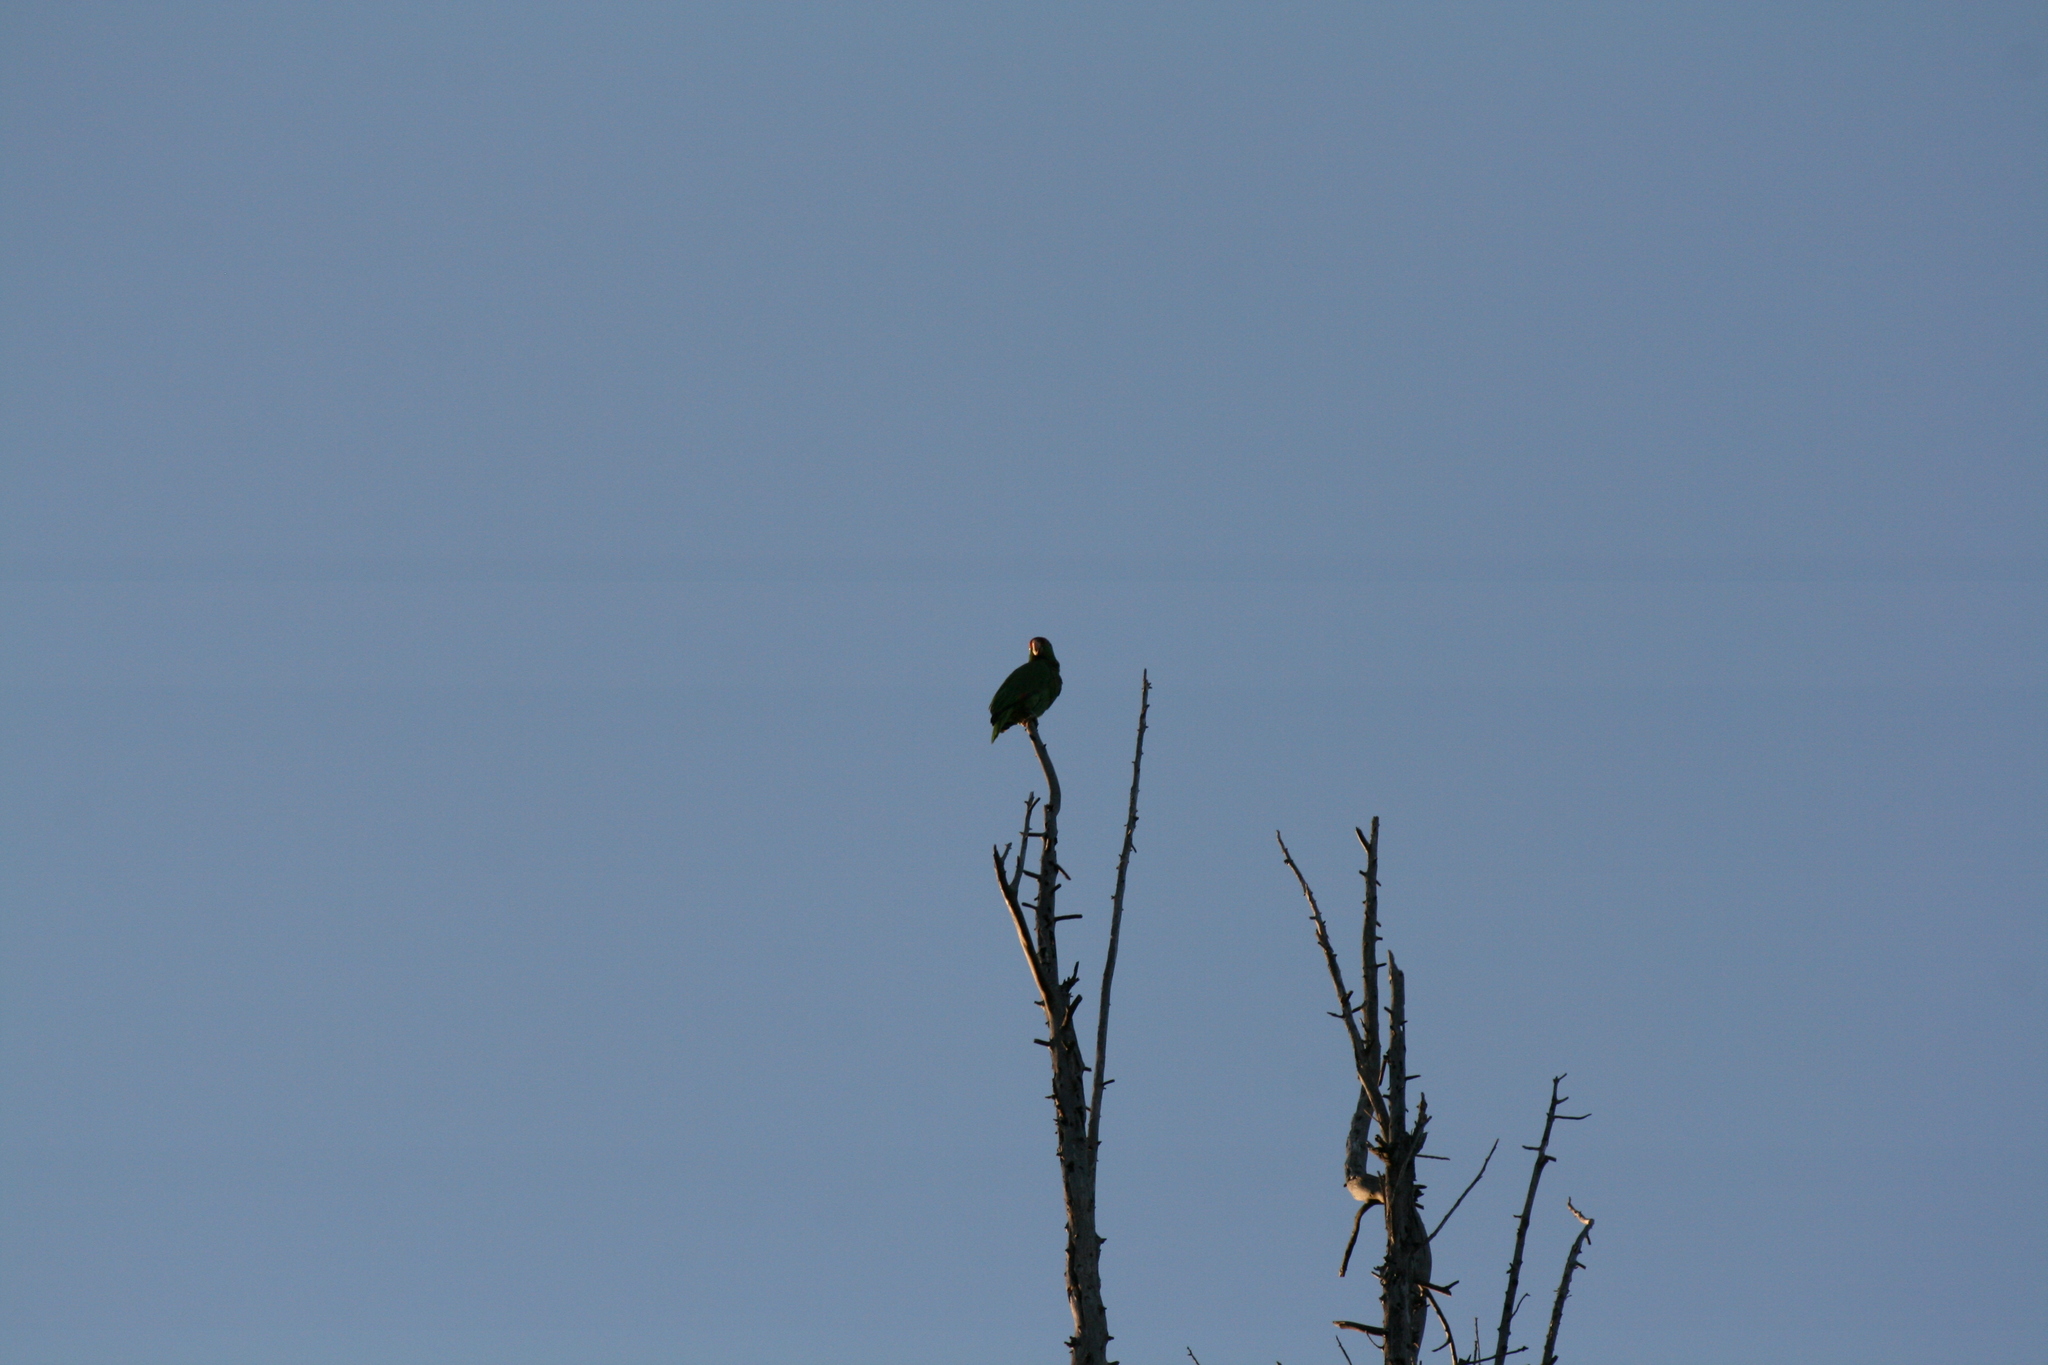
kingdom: Animalia
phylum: Chordata
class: Aves
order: Psittaciformes
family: Psittacidae
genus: Amazona
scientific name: Amazona
